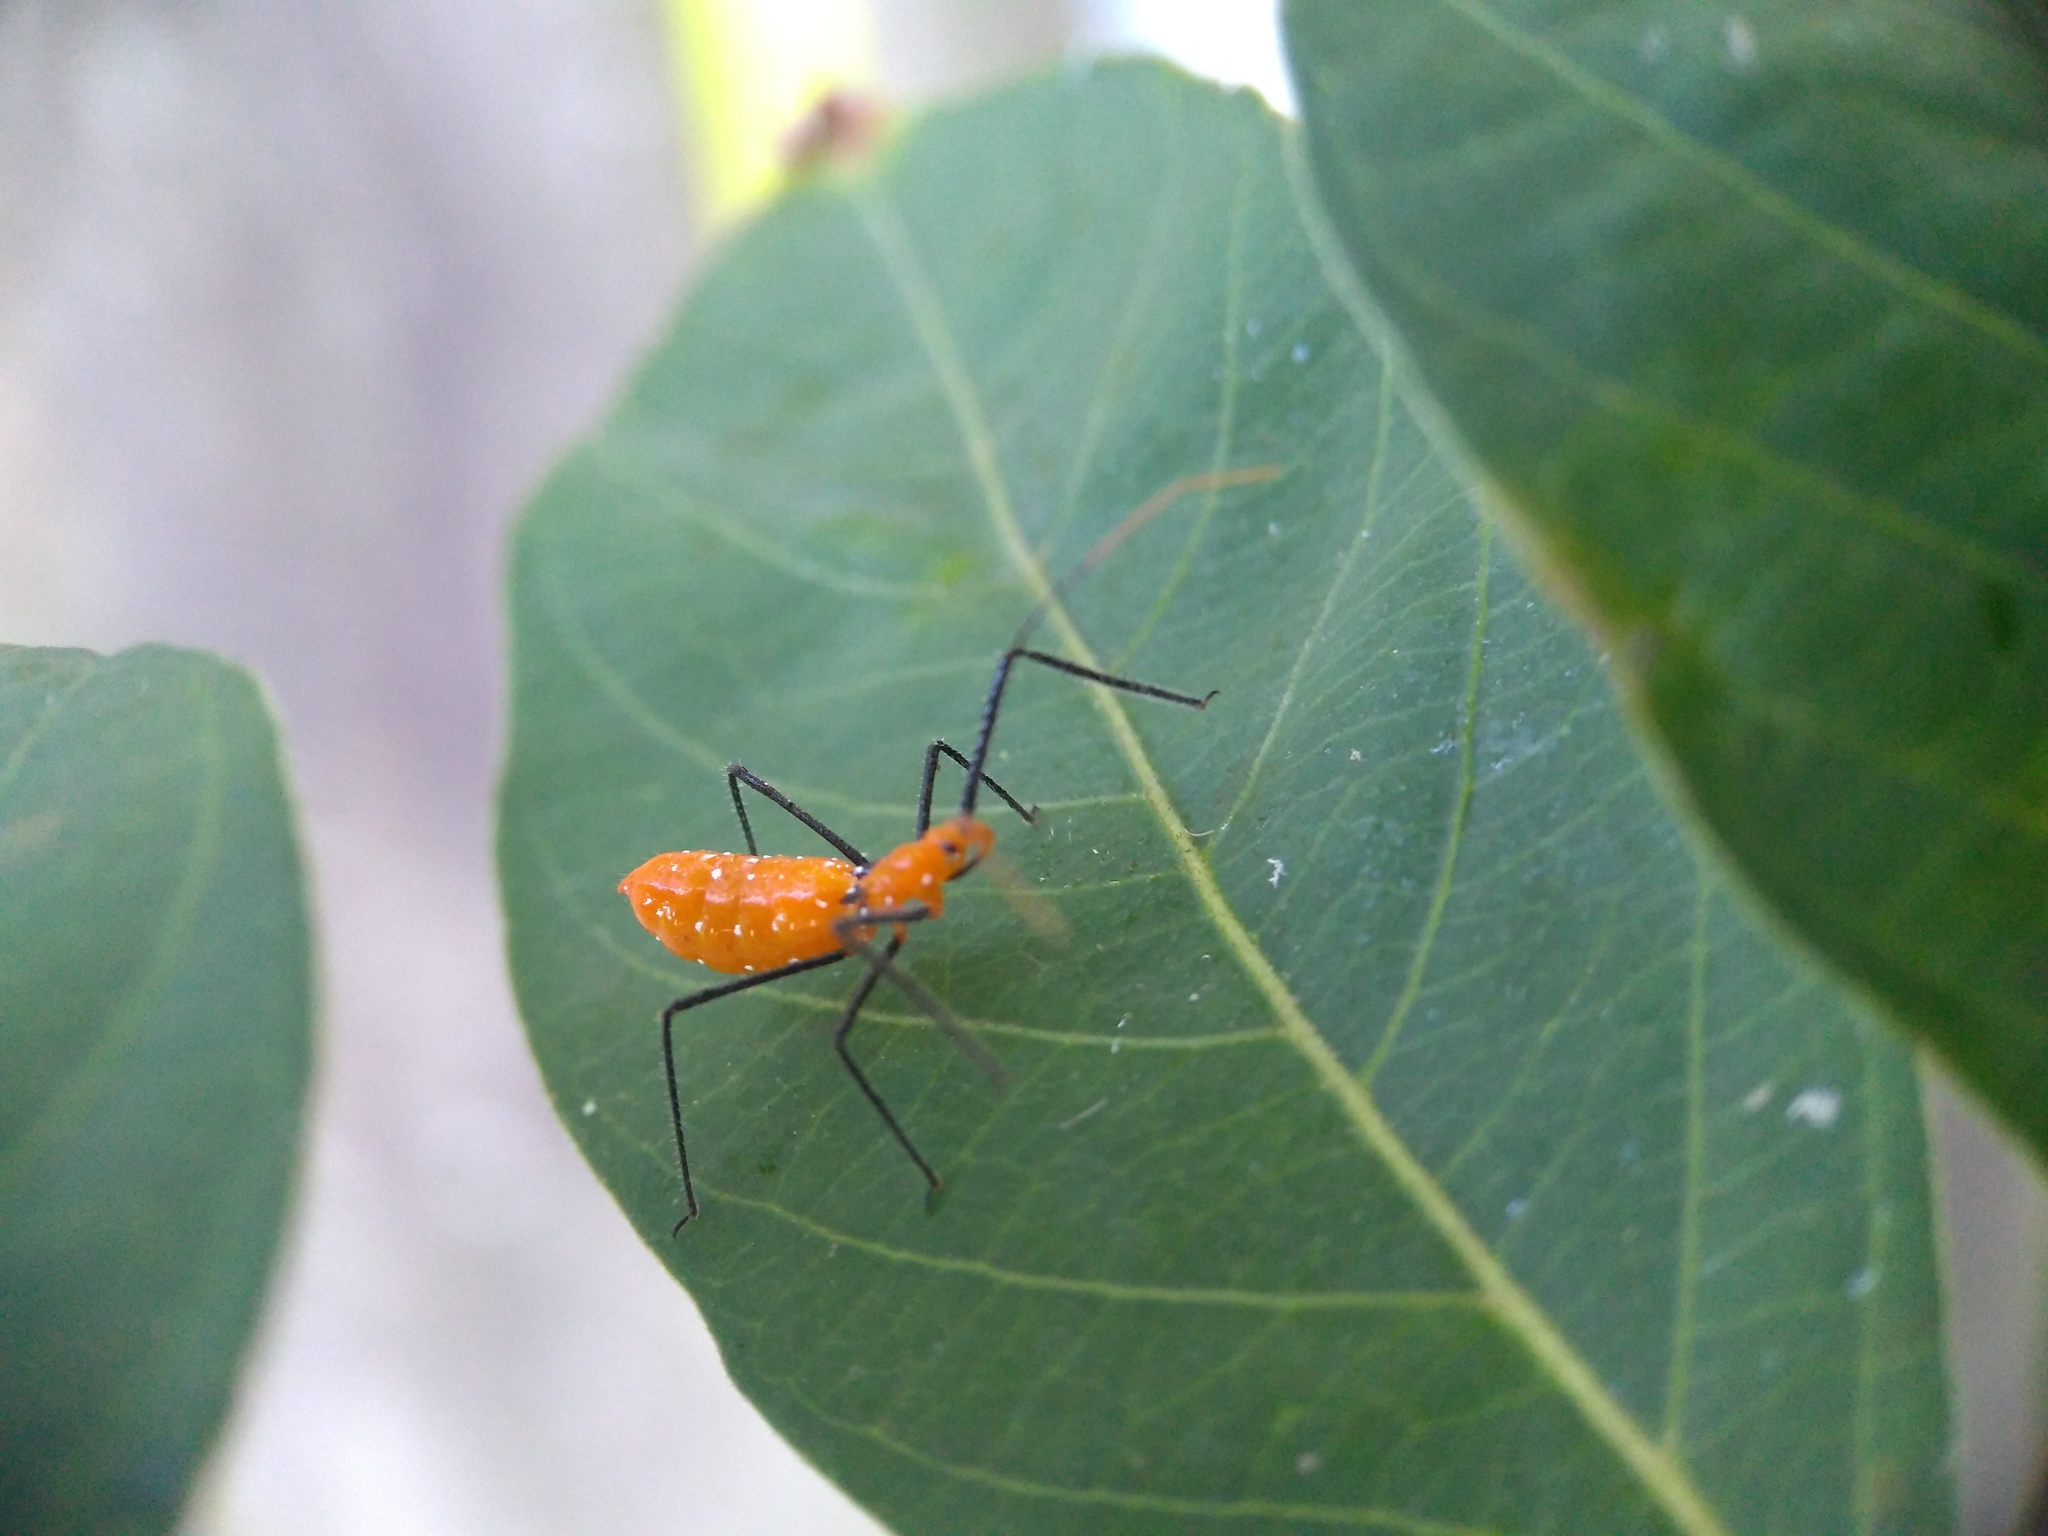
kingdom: Animalia
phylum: Arthropoda
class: Insecta
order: Hemiptera
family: Reduviidae
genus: Zelus
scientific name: Zelus longipes
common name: Milkweed assassin bug
